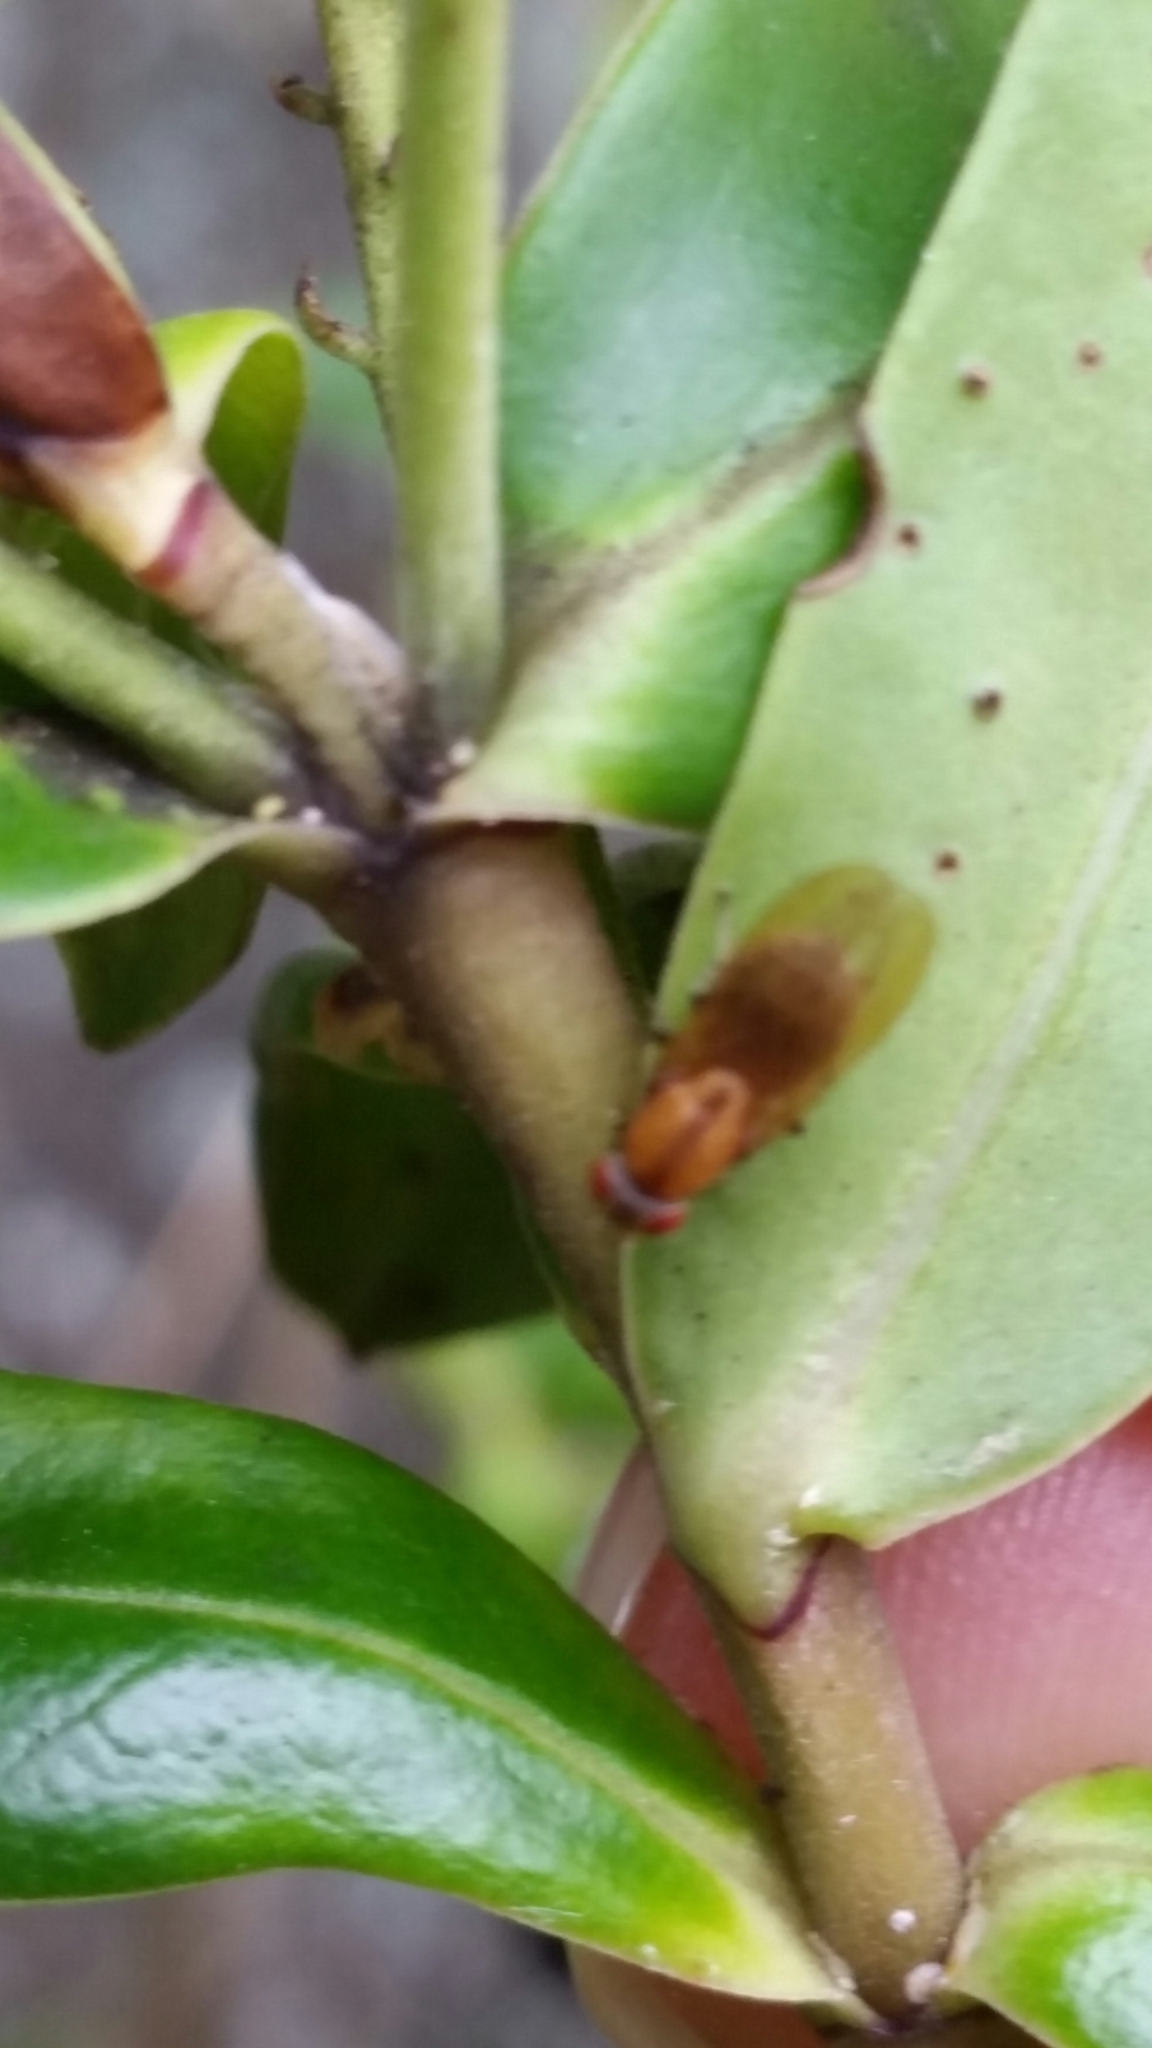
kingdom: Animalia
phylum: Arthropoda
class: Insecta
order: Diptera
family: Lauxaniidae
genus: Sapromyza
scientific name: Sapromyza neozelandica
